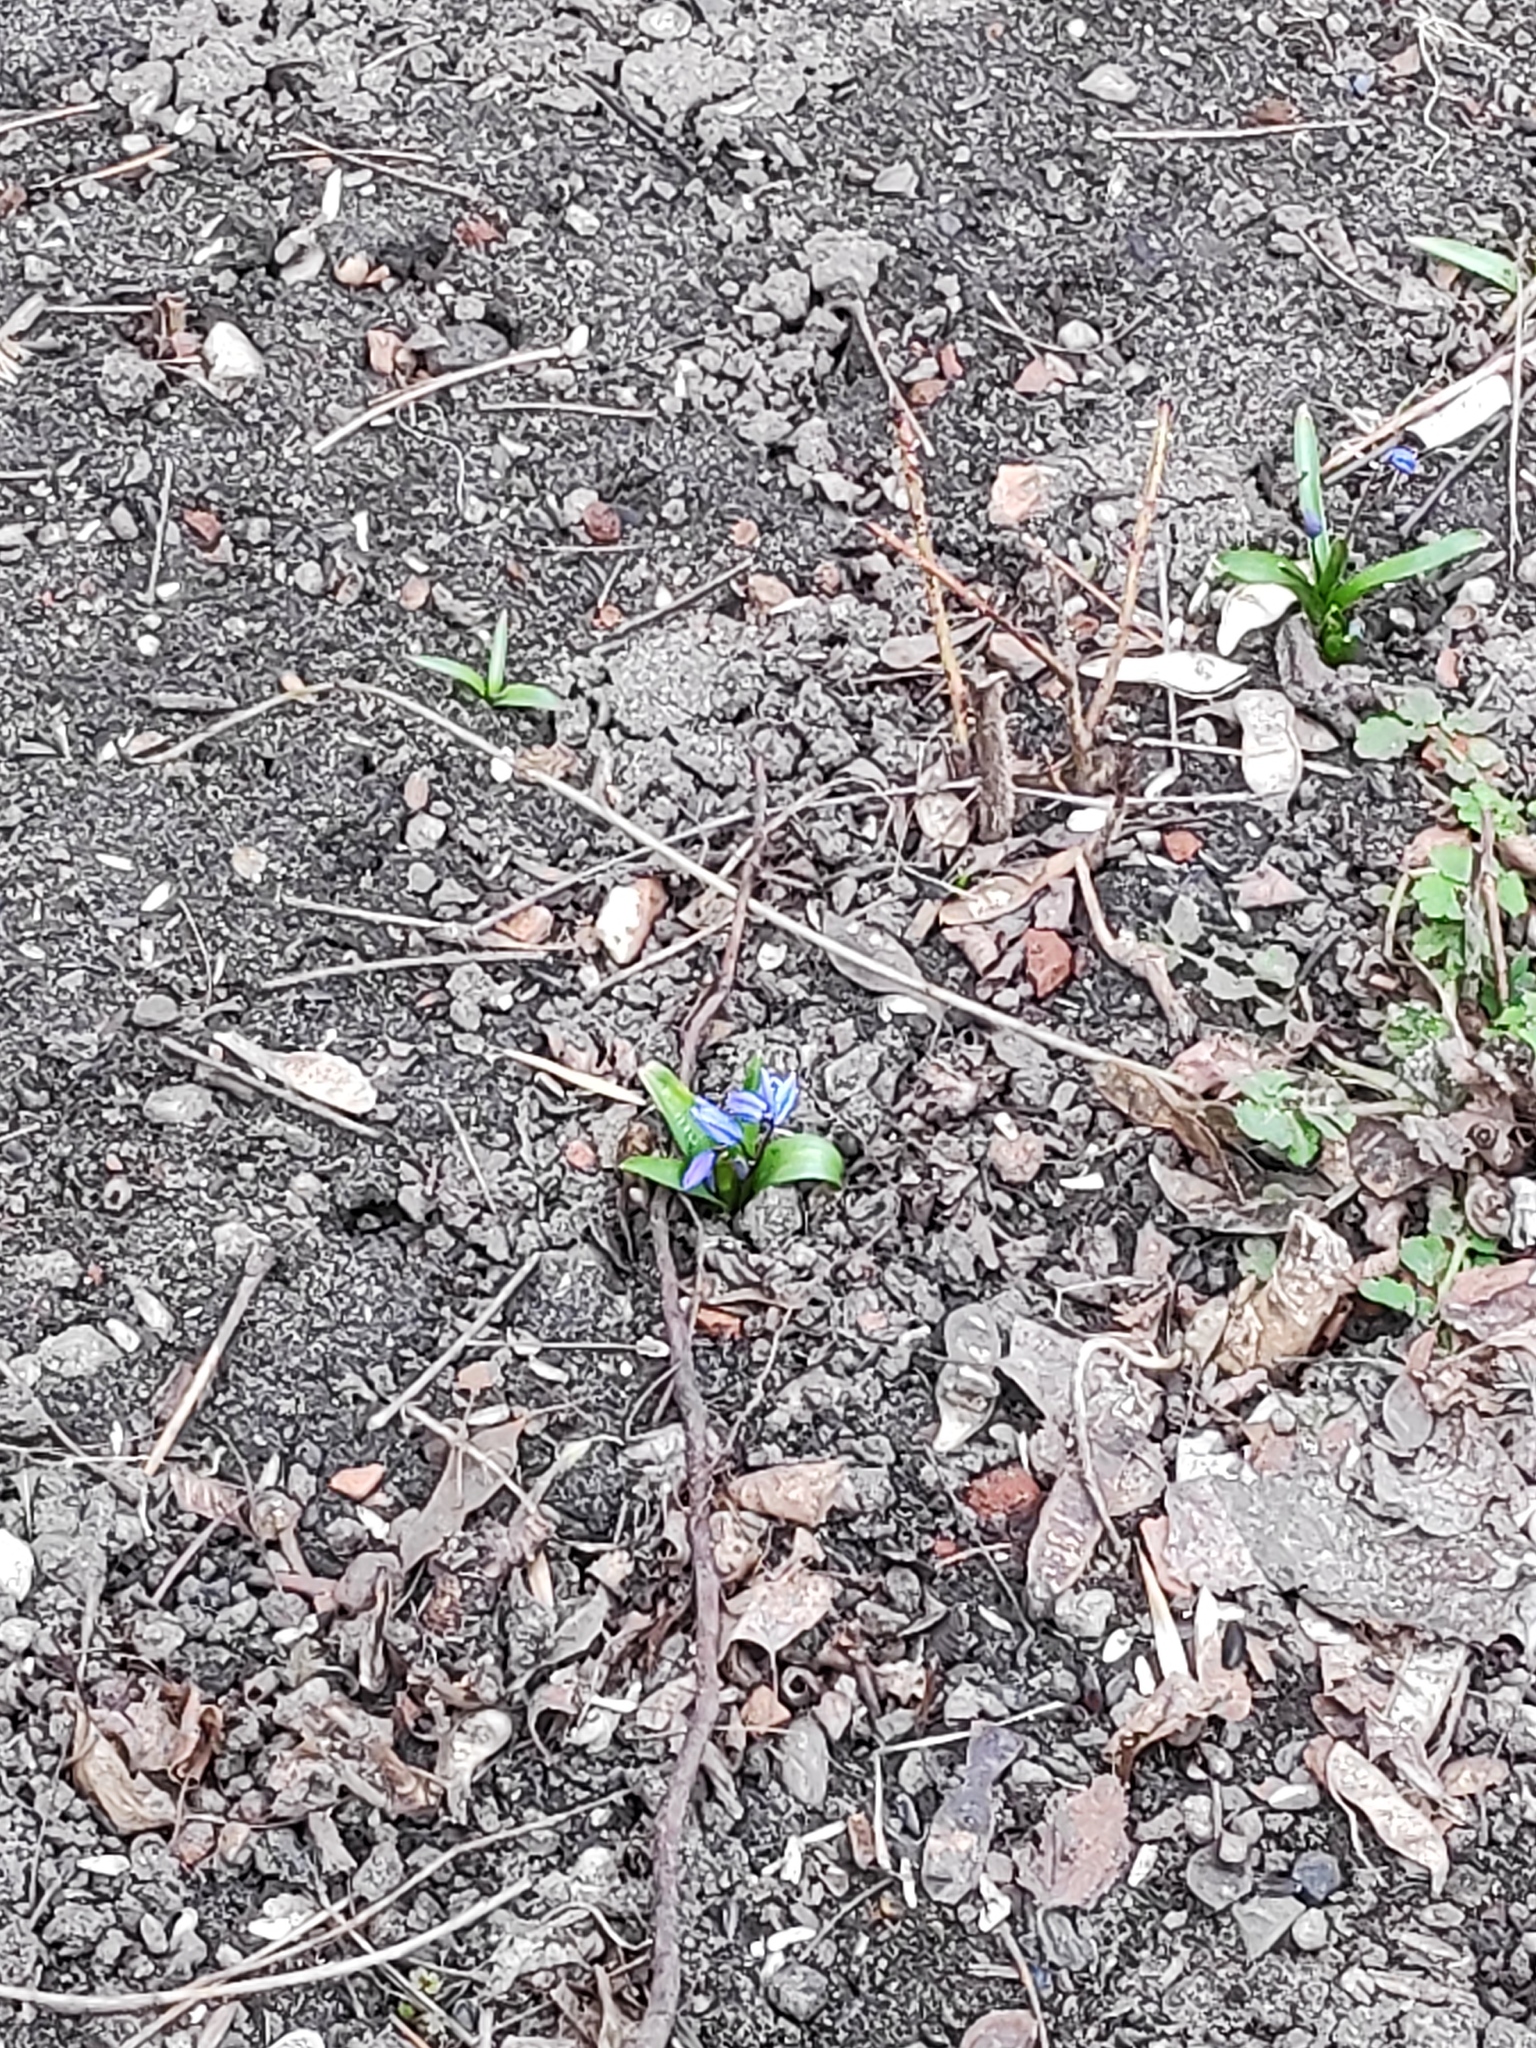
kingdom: Plantae
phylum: Tracheophyta
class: Liliopsida
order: Asparagales
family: Asparagaceae
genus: Scilla
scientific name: Scilla siberica
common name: Siberian squill
